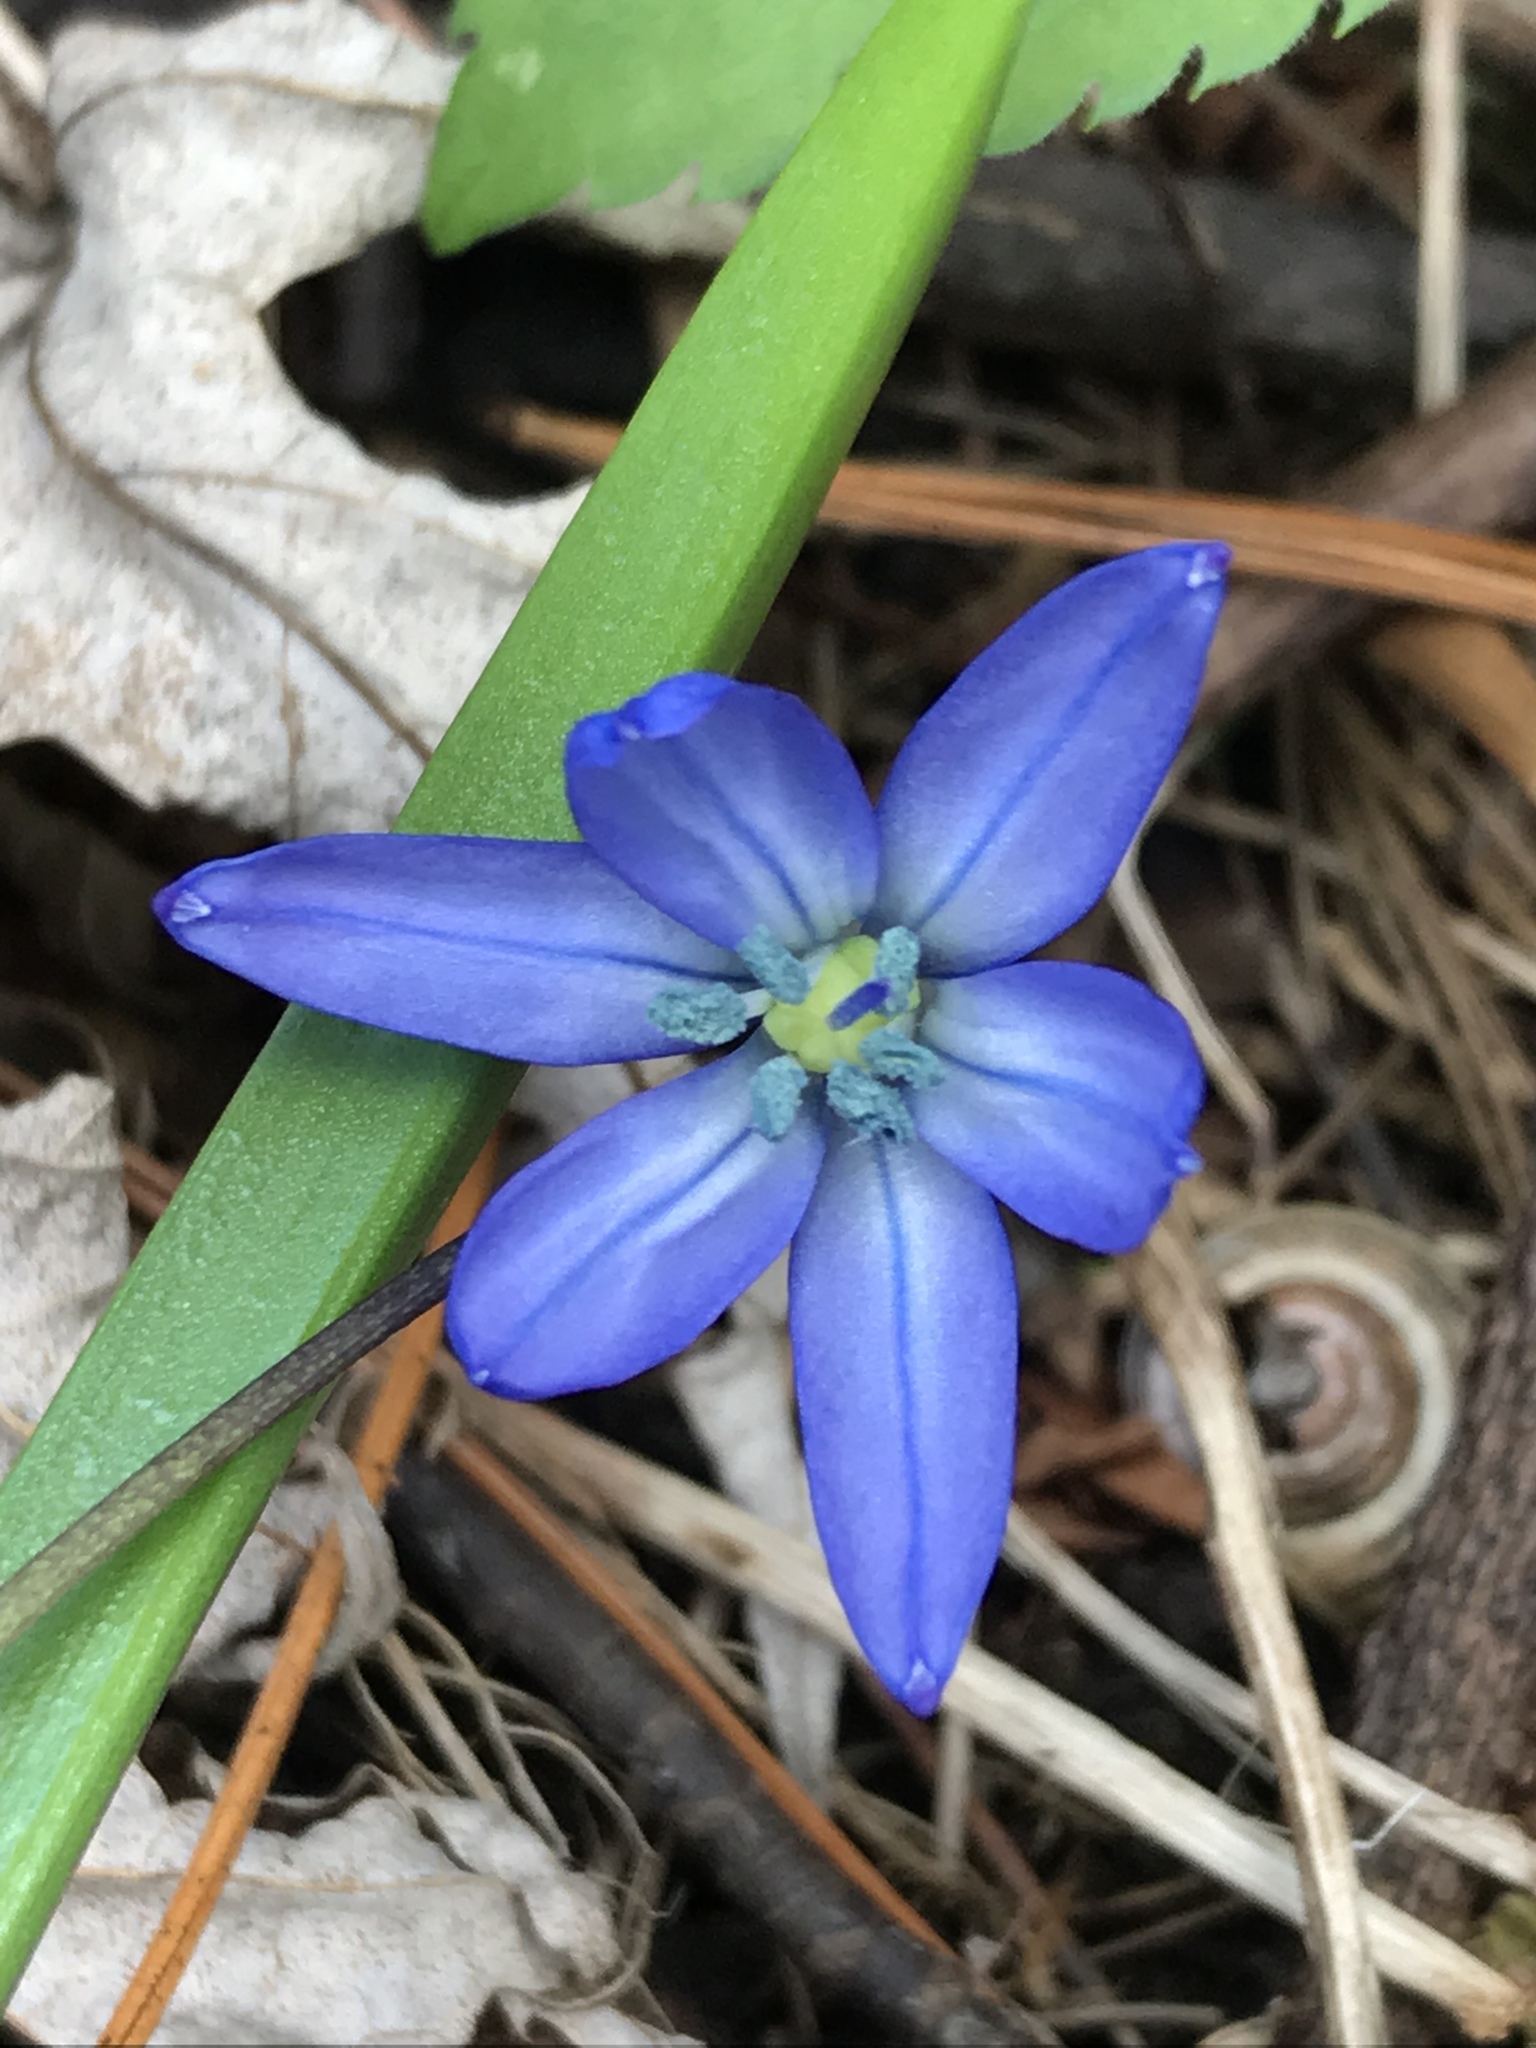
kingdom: Plantae
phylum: Tracheophyta
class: Liliopsida
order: Asparagales
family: Asparagaceae
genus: Scilla
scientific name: Scilla siberica
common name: Siberian squill
